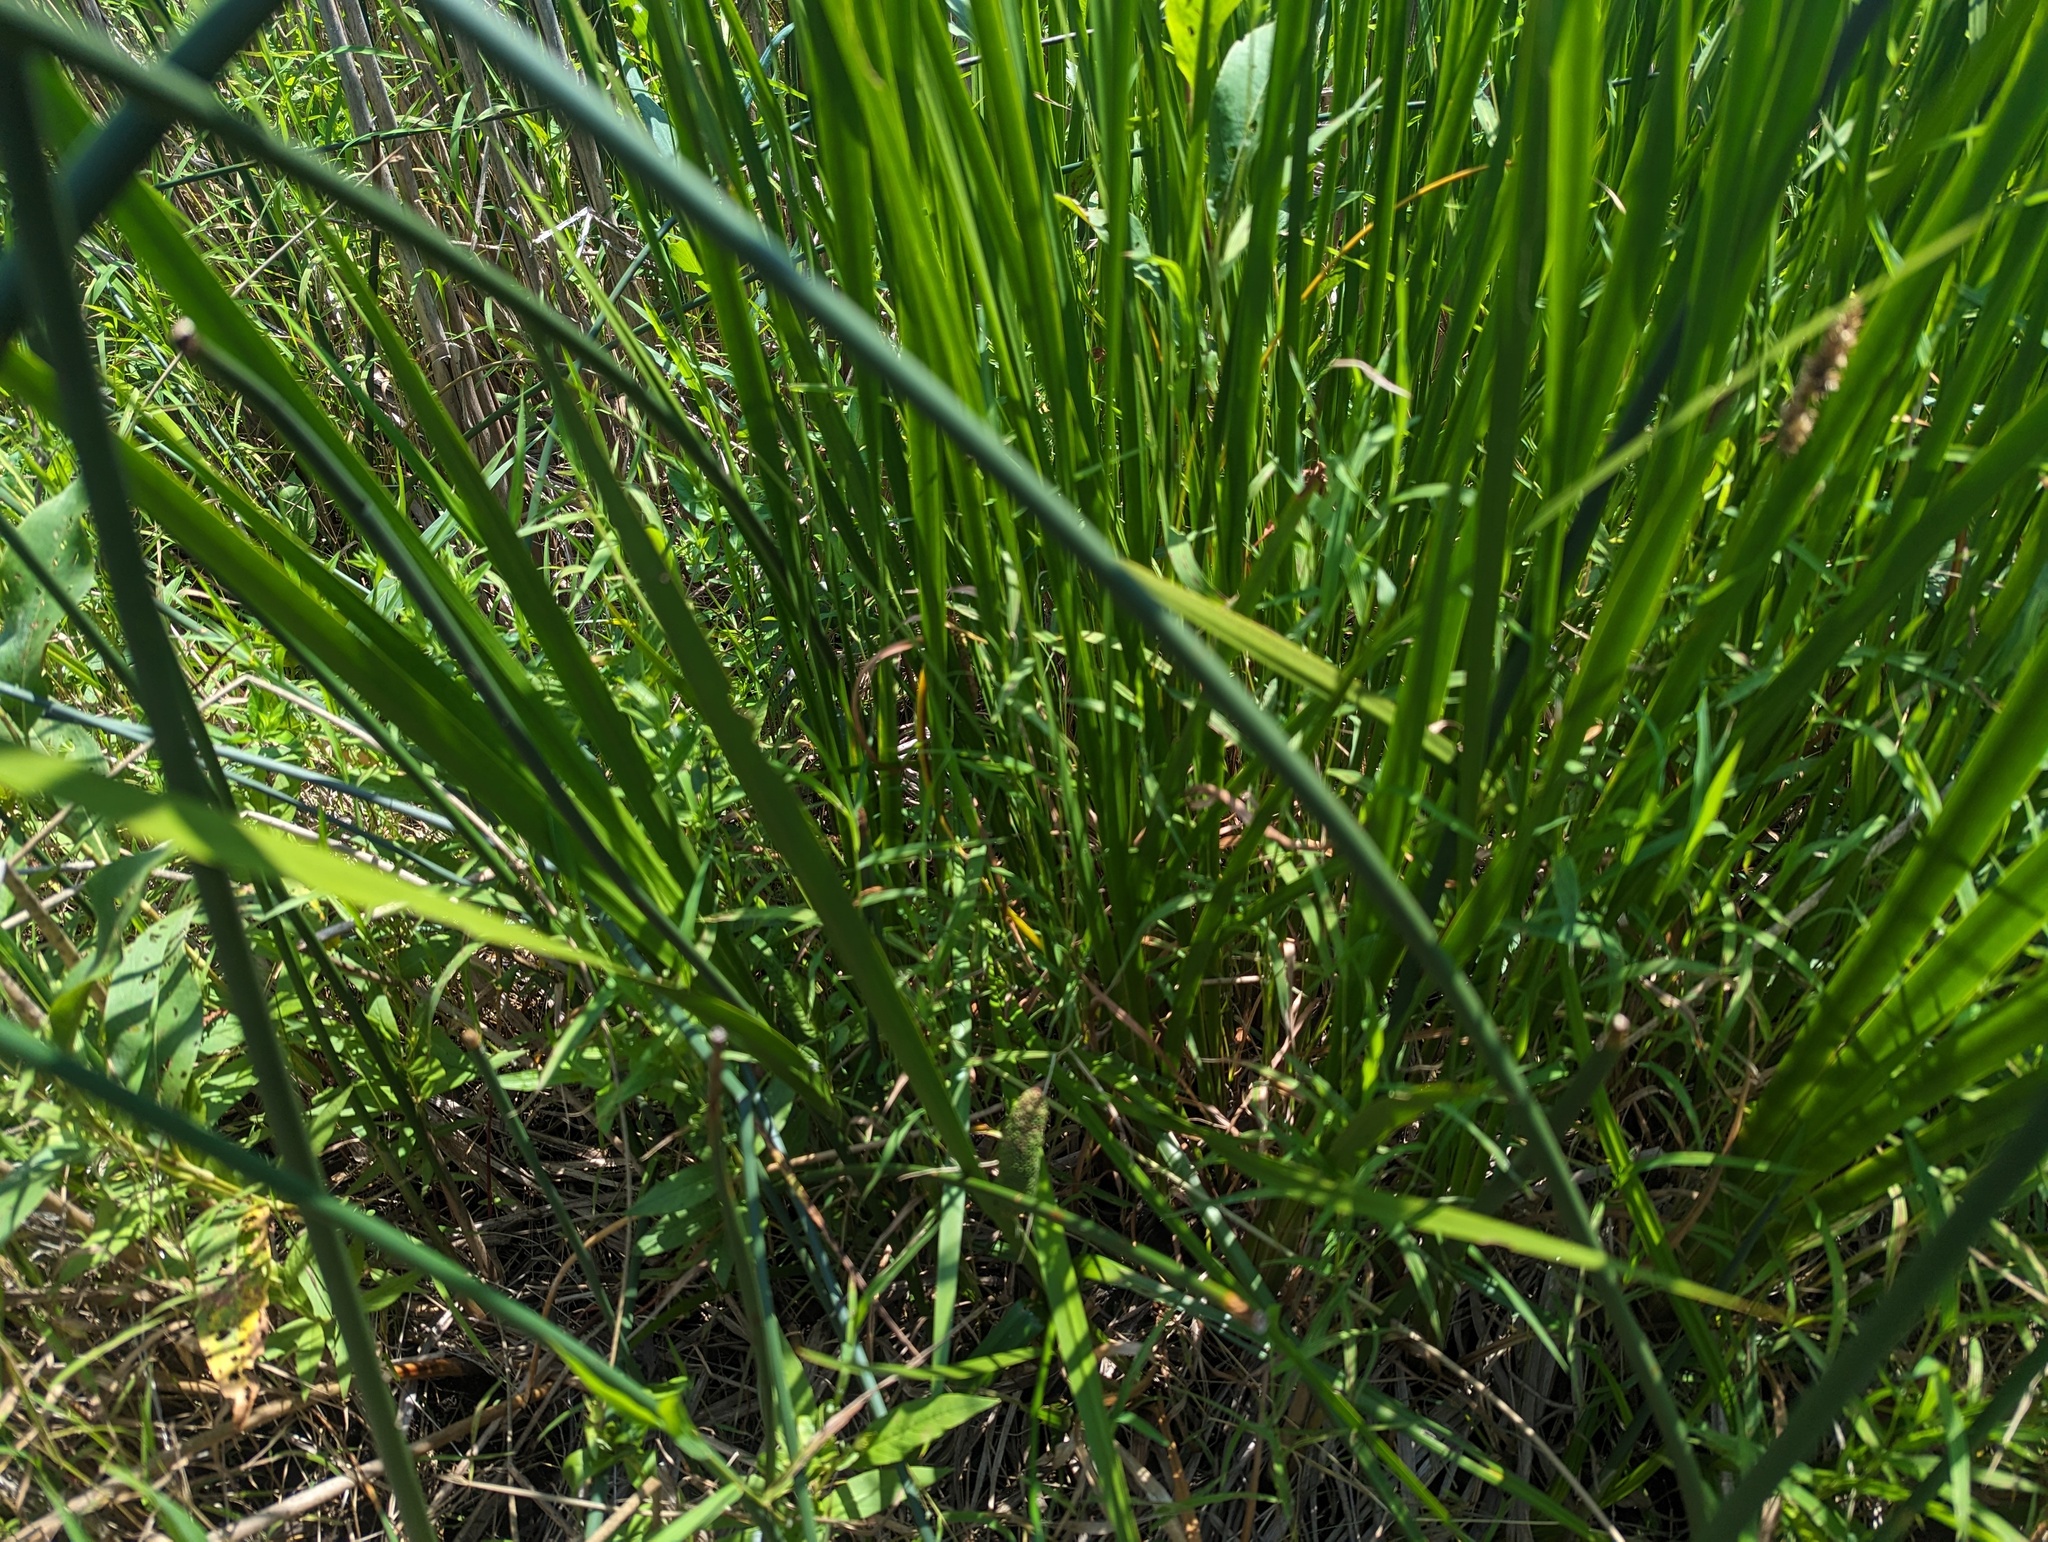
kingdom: Plantae
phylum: Tracheophyta
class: Liliopsida
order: Acorales
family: Acoraceae
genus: Acorus
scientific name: Acorus calamus
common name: Sweet-flag
